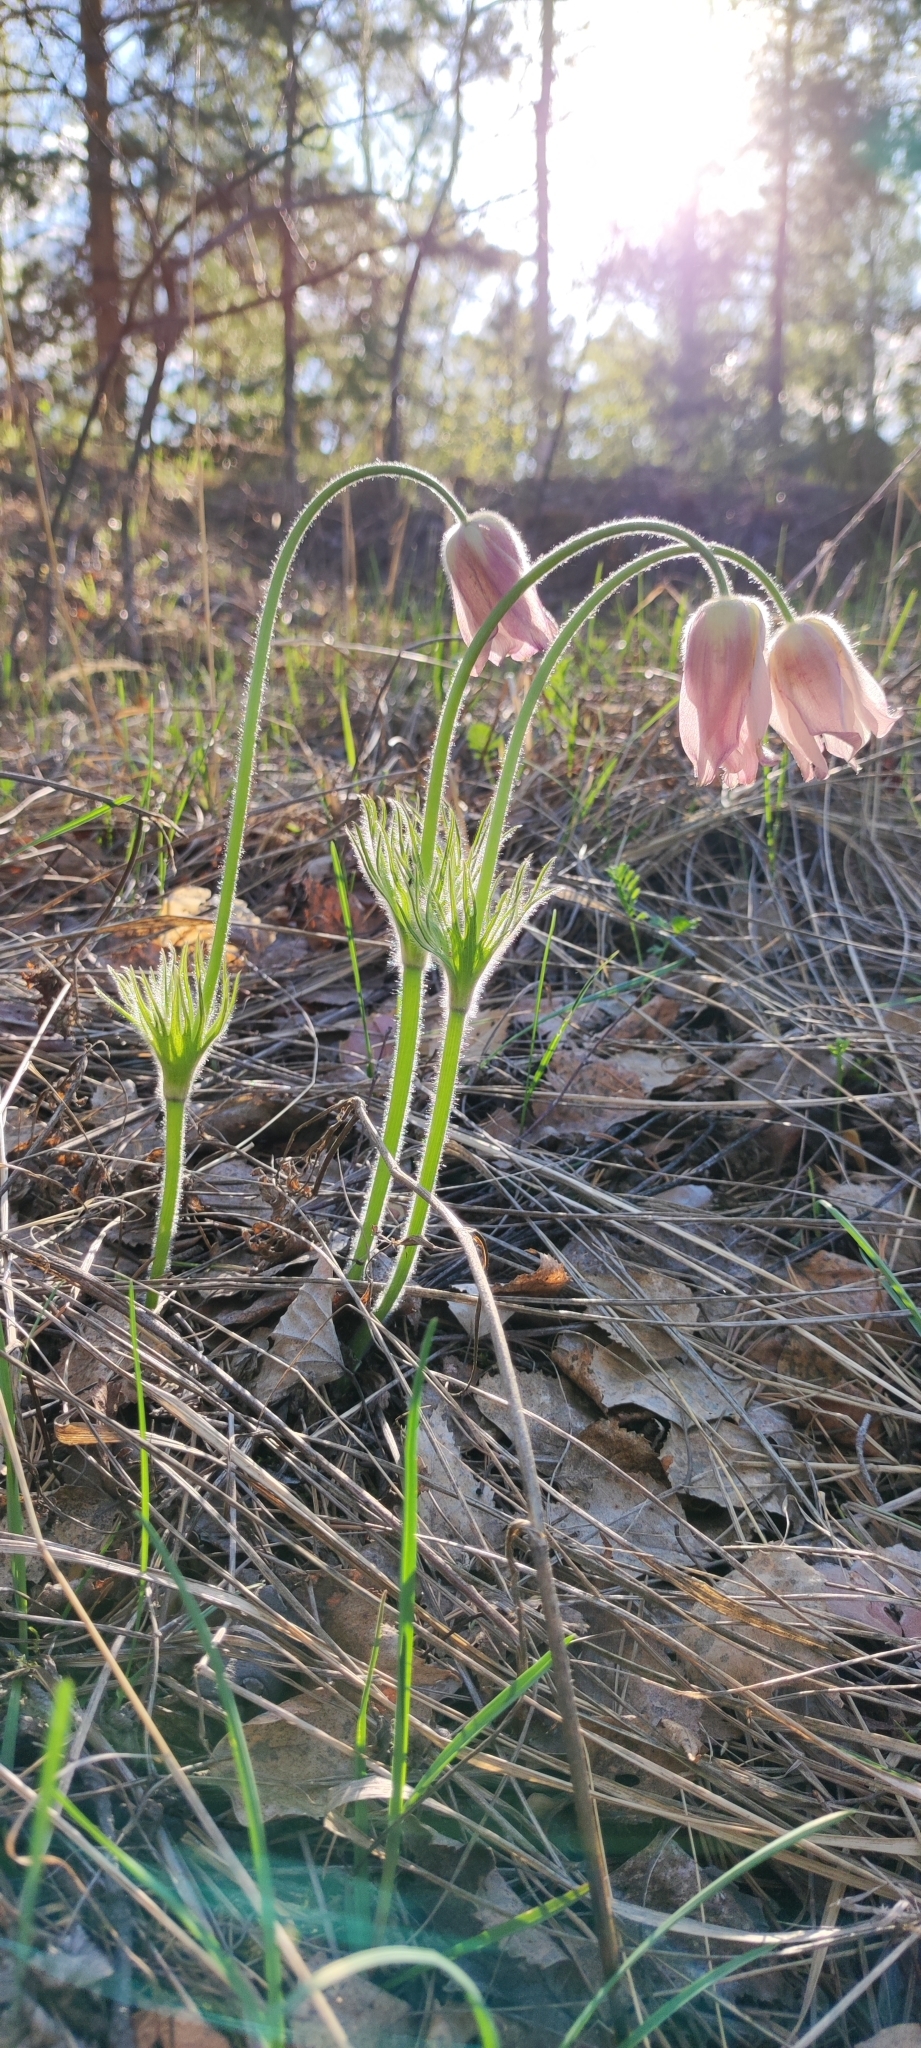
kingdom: Plantae
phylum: Tracheophyta
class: Magnoliopsida
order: Ranunculales
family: Ranunculaceae
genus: Pulsatilla
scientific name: Pulsatilla patens
